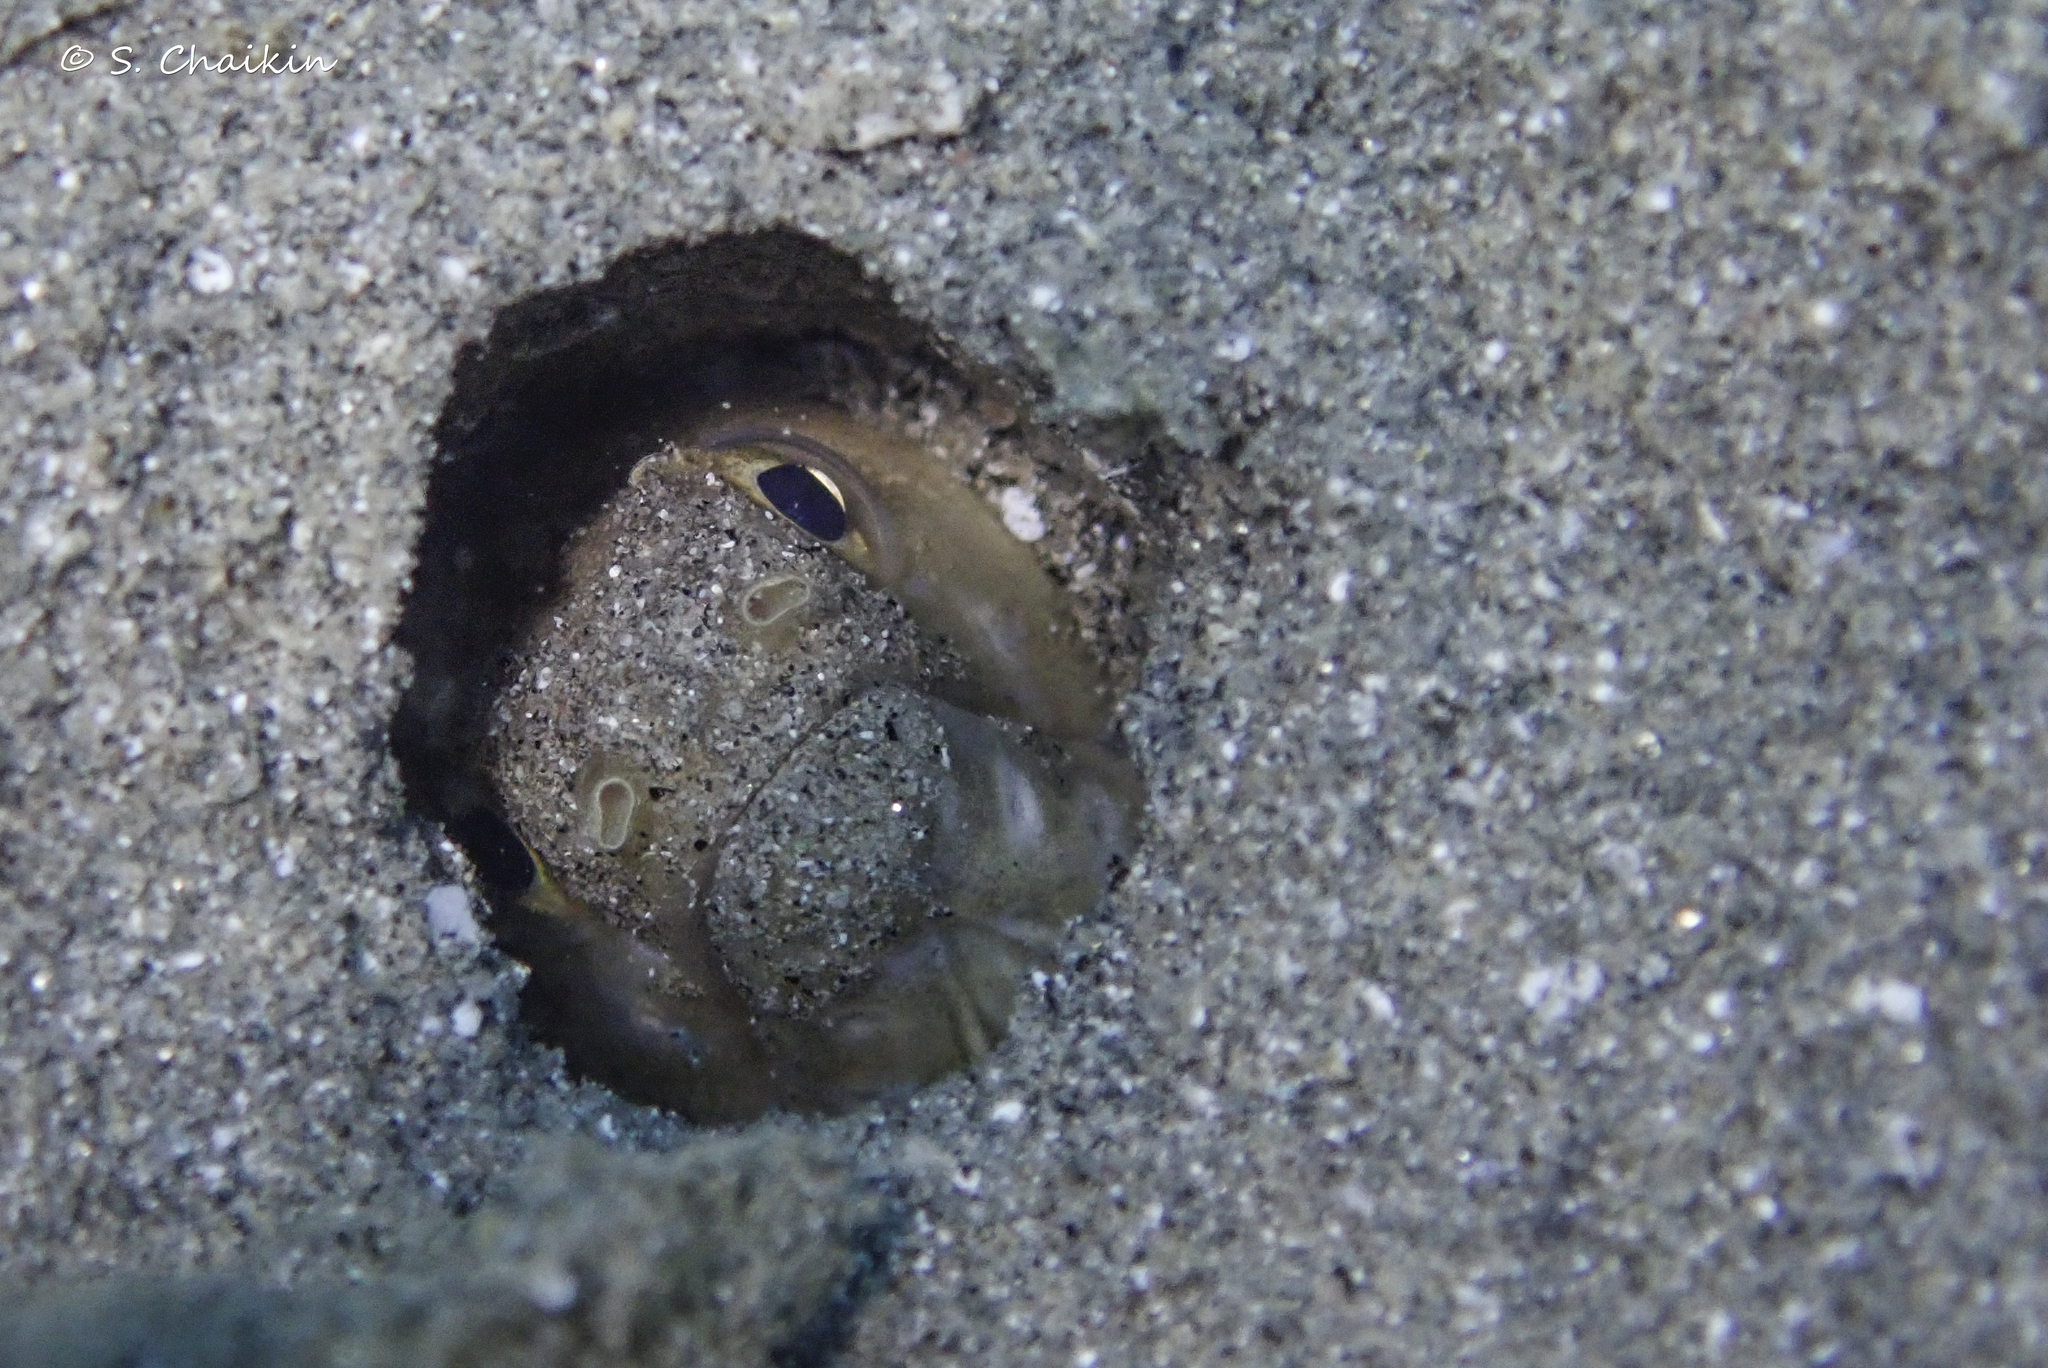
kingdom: Animalia
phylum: Chordata
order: Anguilliformes
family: Muraenidae
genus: Gymnothorax
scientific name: Gymnothorax angusticauda
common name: Narrowtail moray
